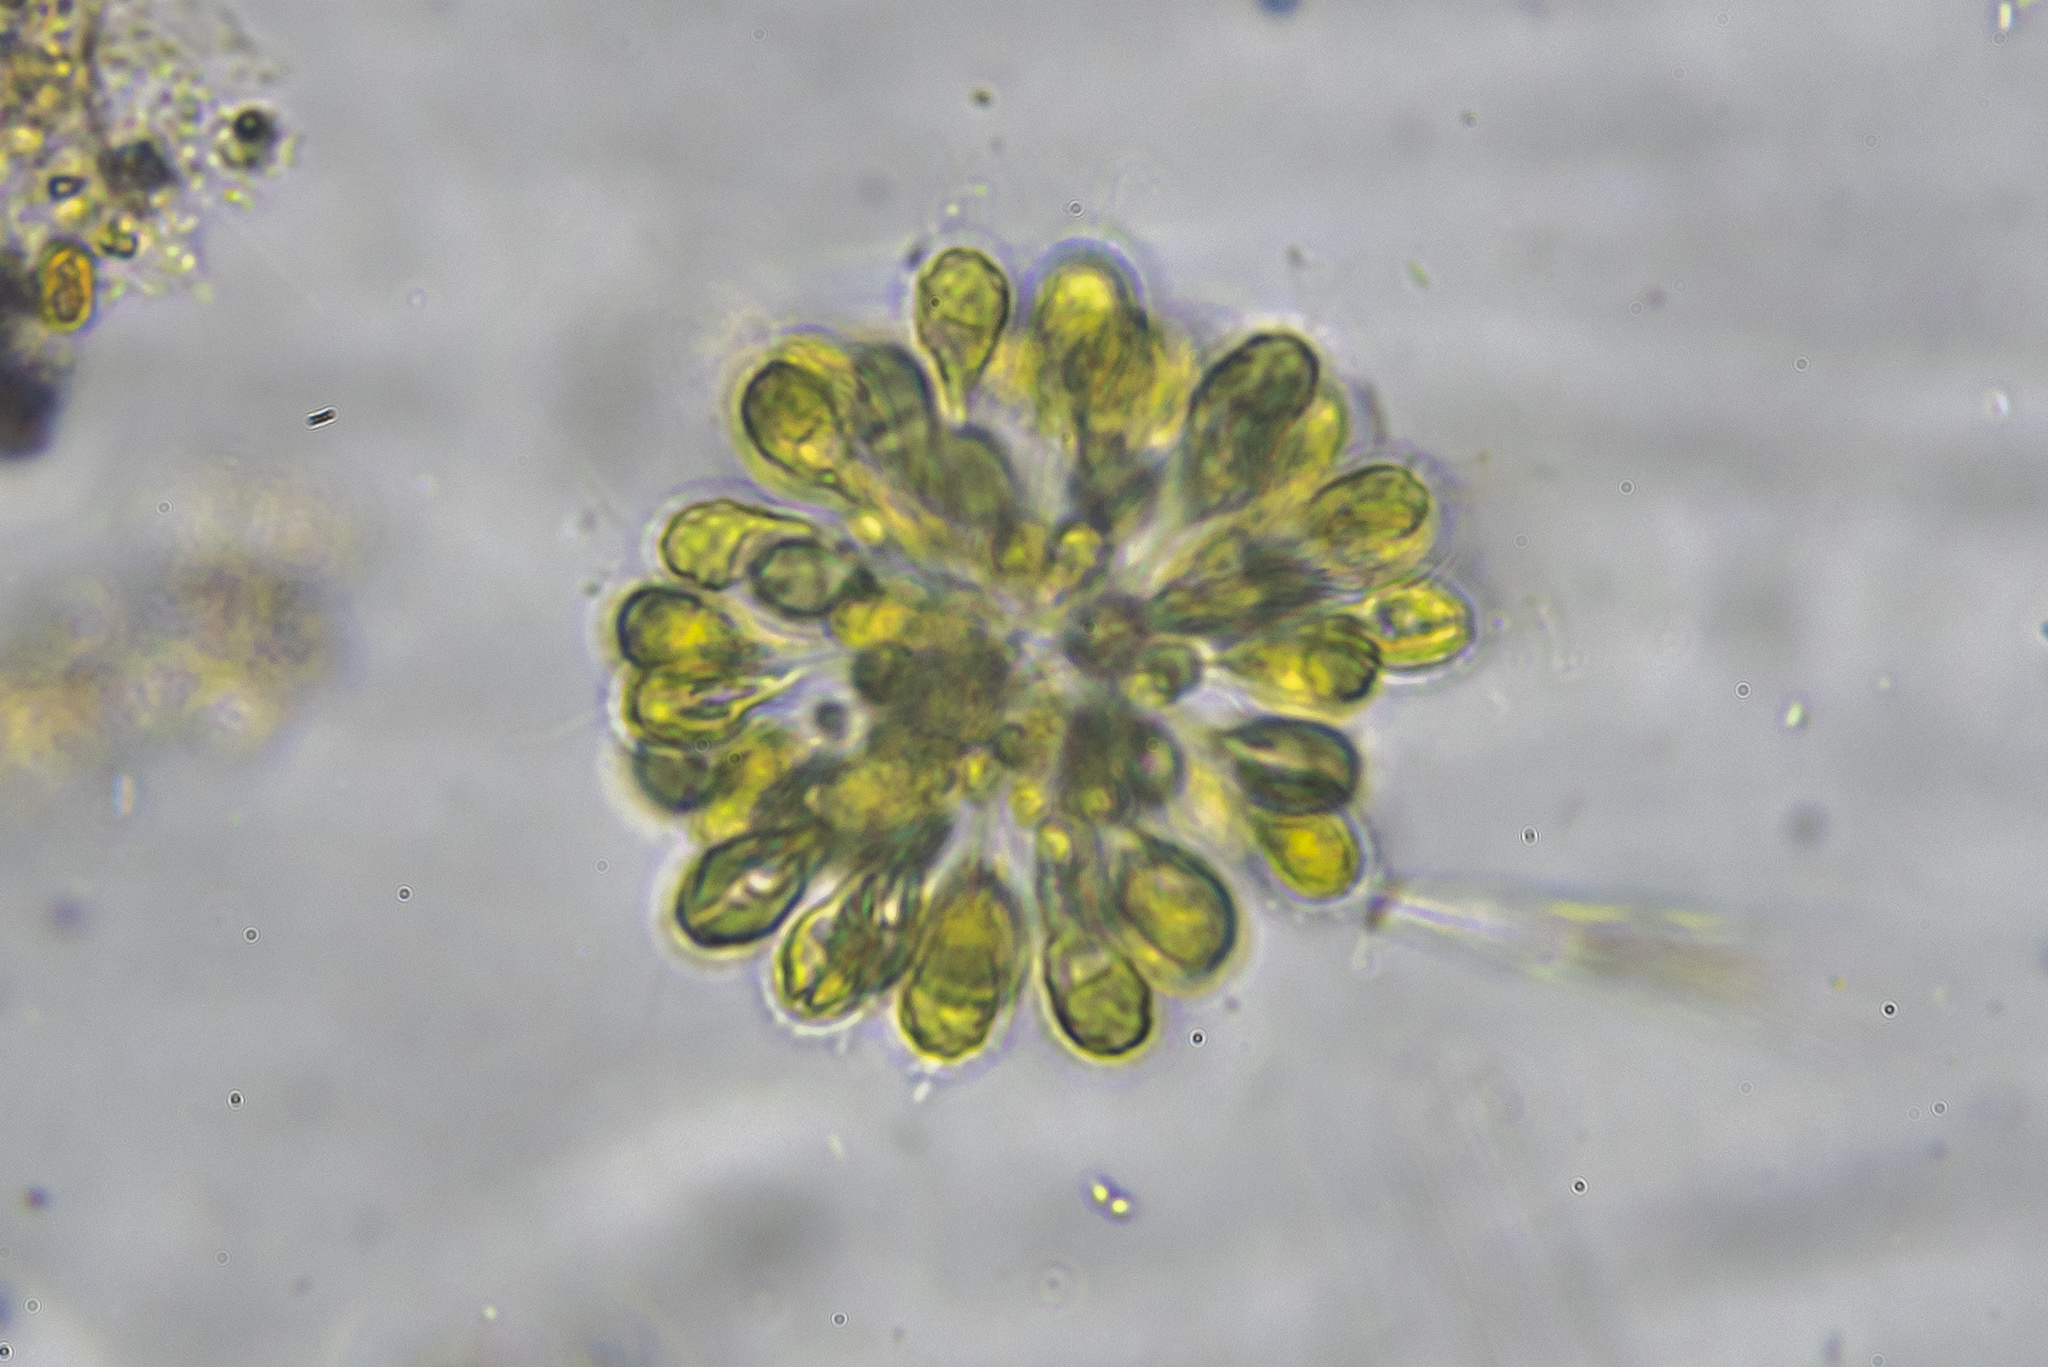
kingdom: Chromista
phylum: Ochrophyta
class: Synurophyceae
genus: Synura
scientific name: Synura
